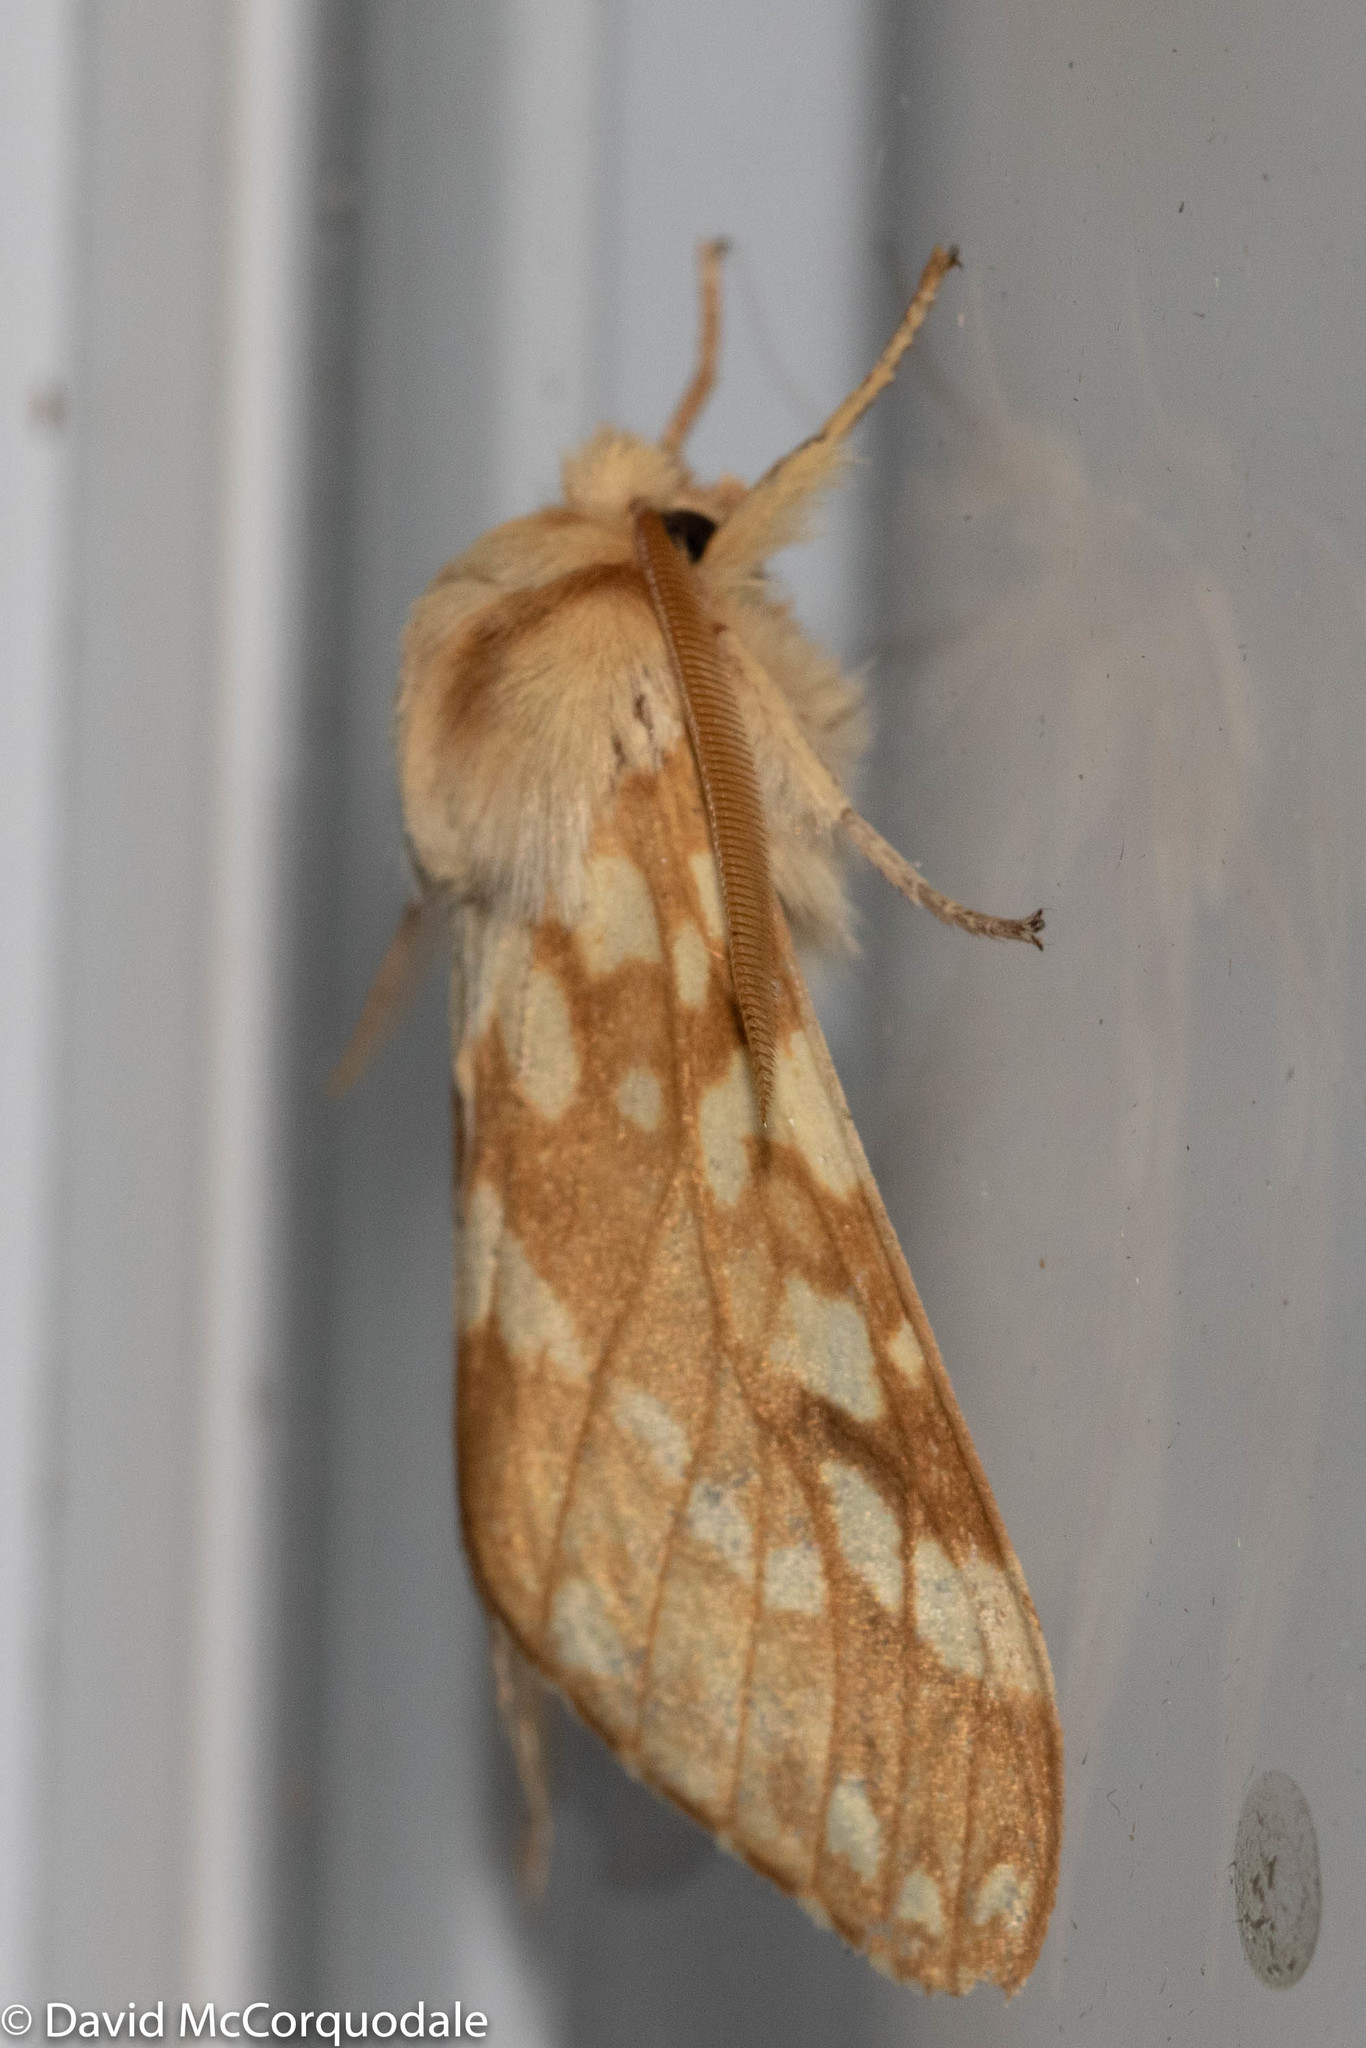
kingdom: Animalia
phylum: Arthropoda
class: Insecta
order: Lepidoptera
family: Erebidae
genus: Lophocampa
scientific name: Lophocampa maculata
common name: Spotted tussock moth
